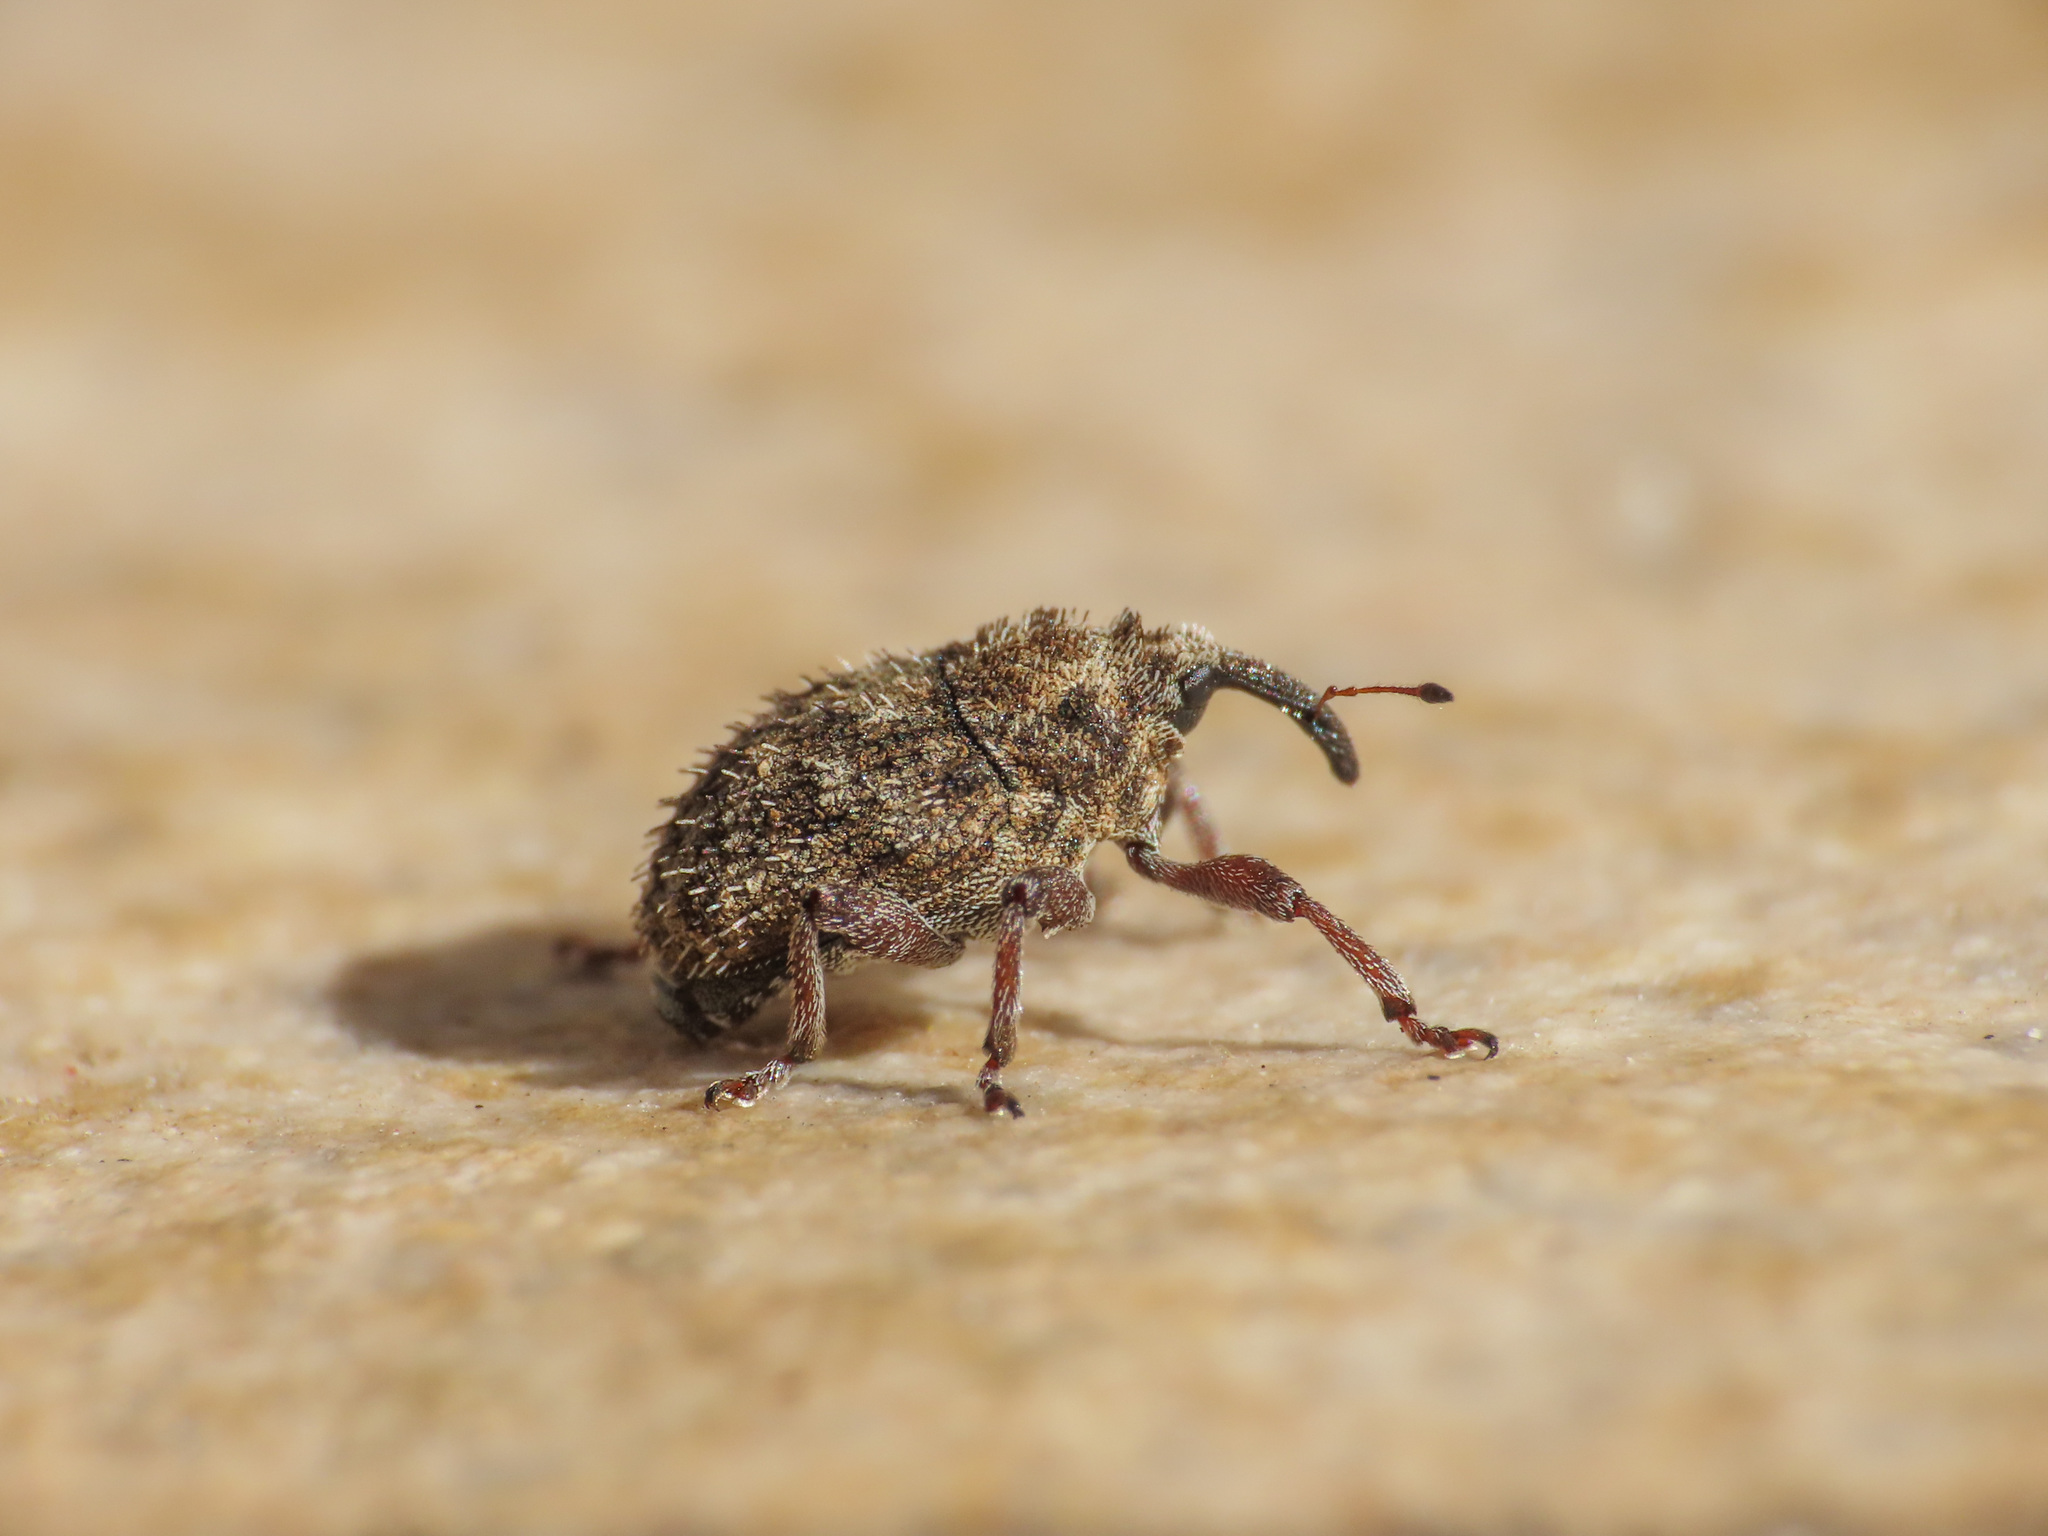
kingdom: Animalia
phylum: Arthropoda
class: Insecta
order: Coleoptera
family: Curculionidae
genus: Trichosirocalus
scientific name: Trichosirocalus horridus
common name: Musk thistle rosette weevil
